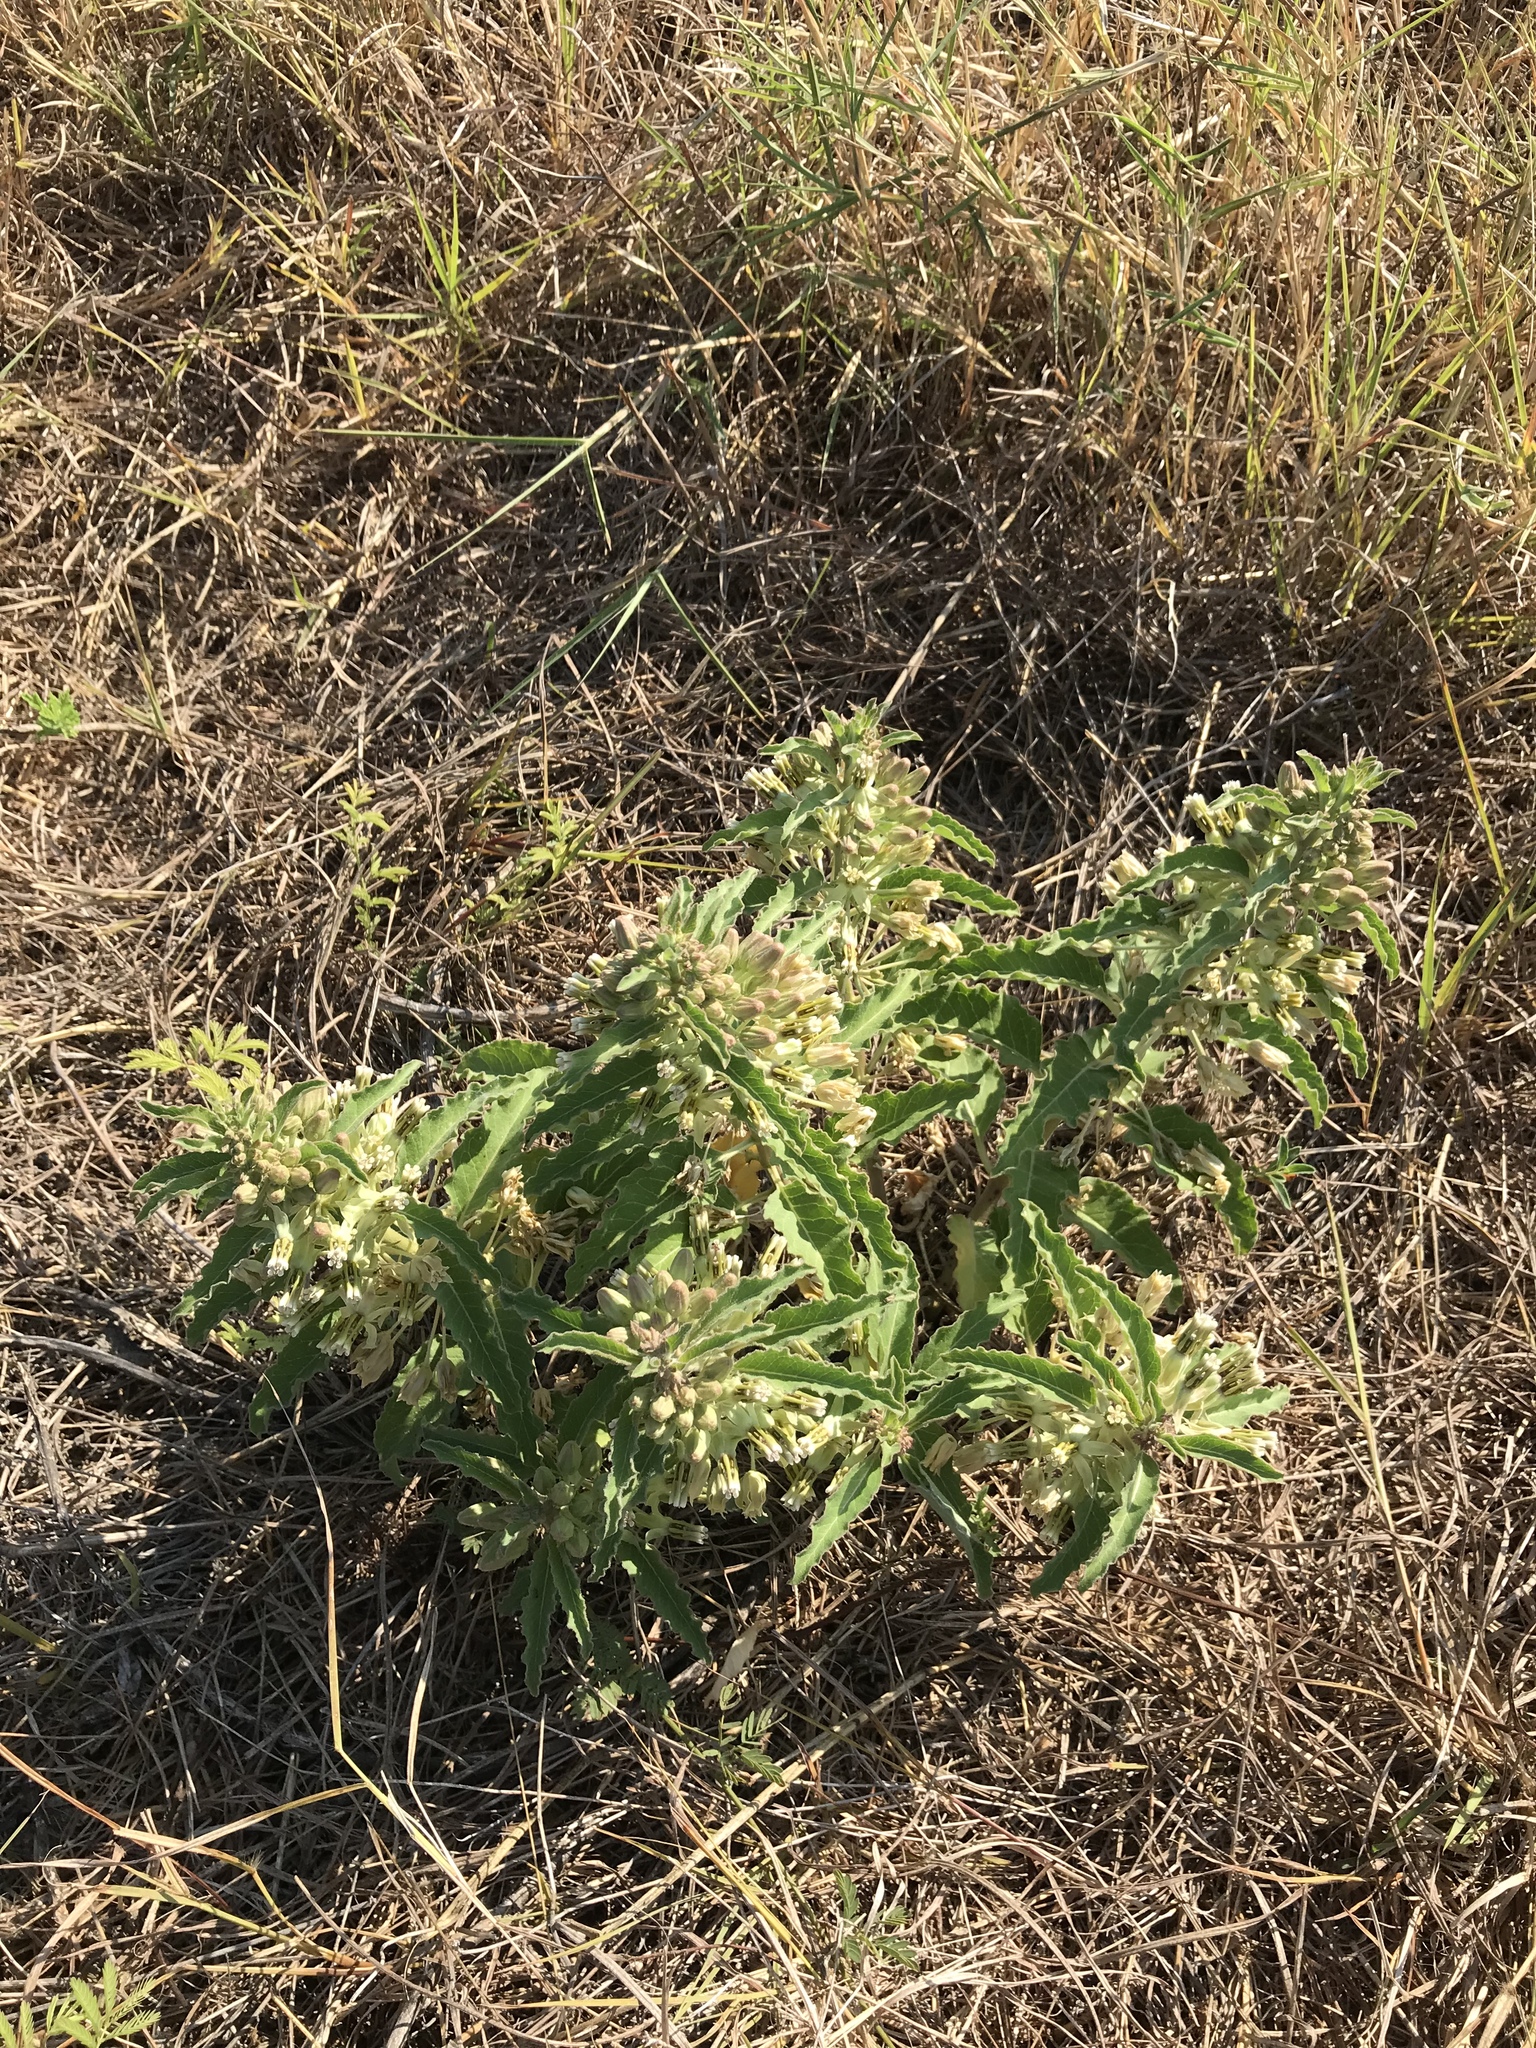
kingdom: Plantae
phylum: Tracheophyta
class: Magnoliopsida
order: Gentianales
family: Apocynaceae
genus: Asclepias
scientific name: Asclepias oenotheroides
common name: Zizotes milkweed
